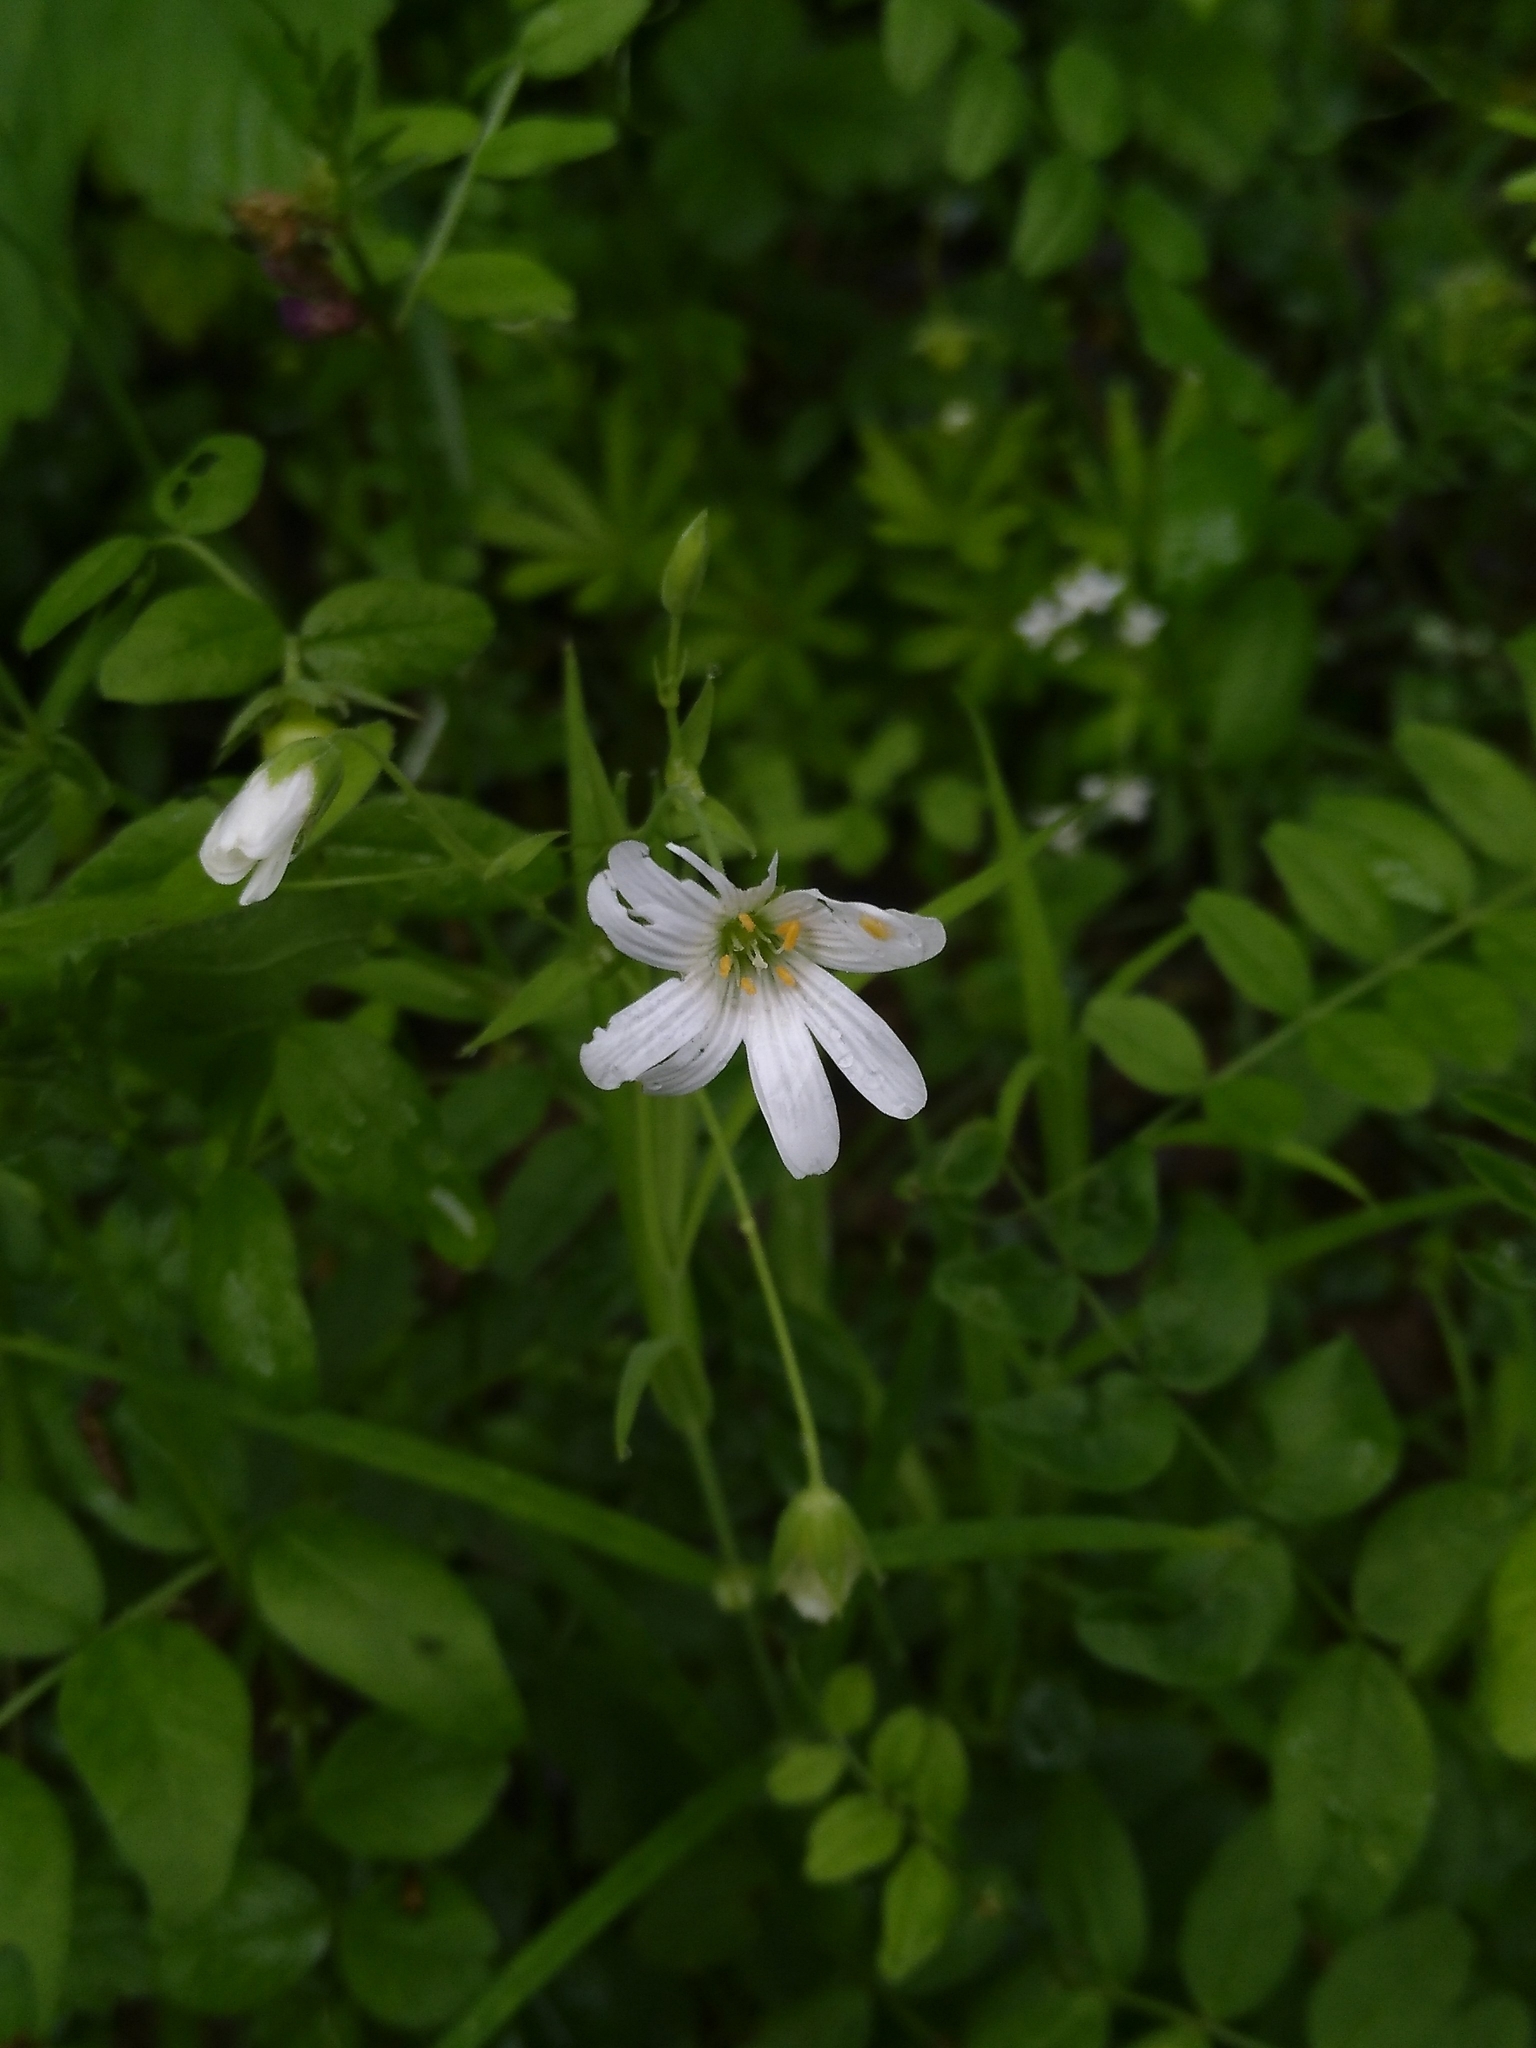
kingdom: Plantae
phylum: Tracheophyta
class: Magnoliopsida
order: Caryophyllales
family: Caryophyllaceae
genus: Rabelera
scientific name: Rabelera holostea
